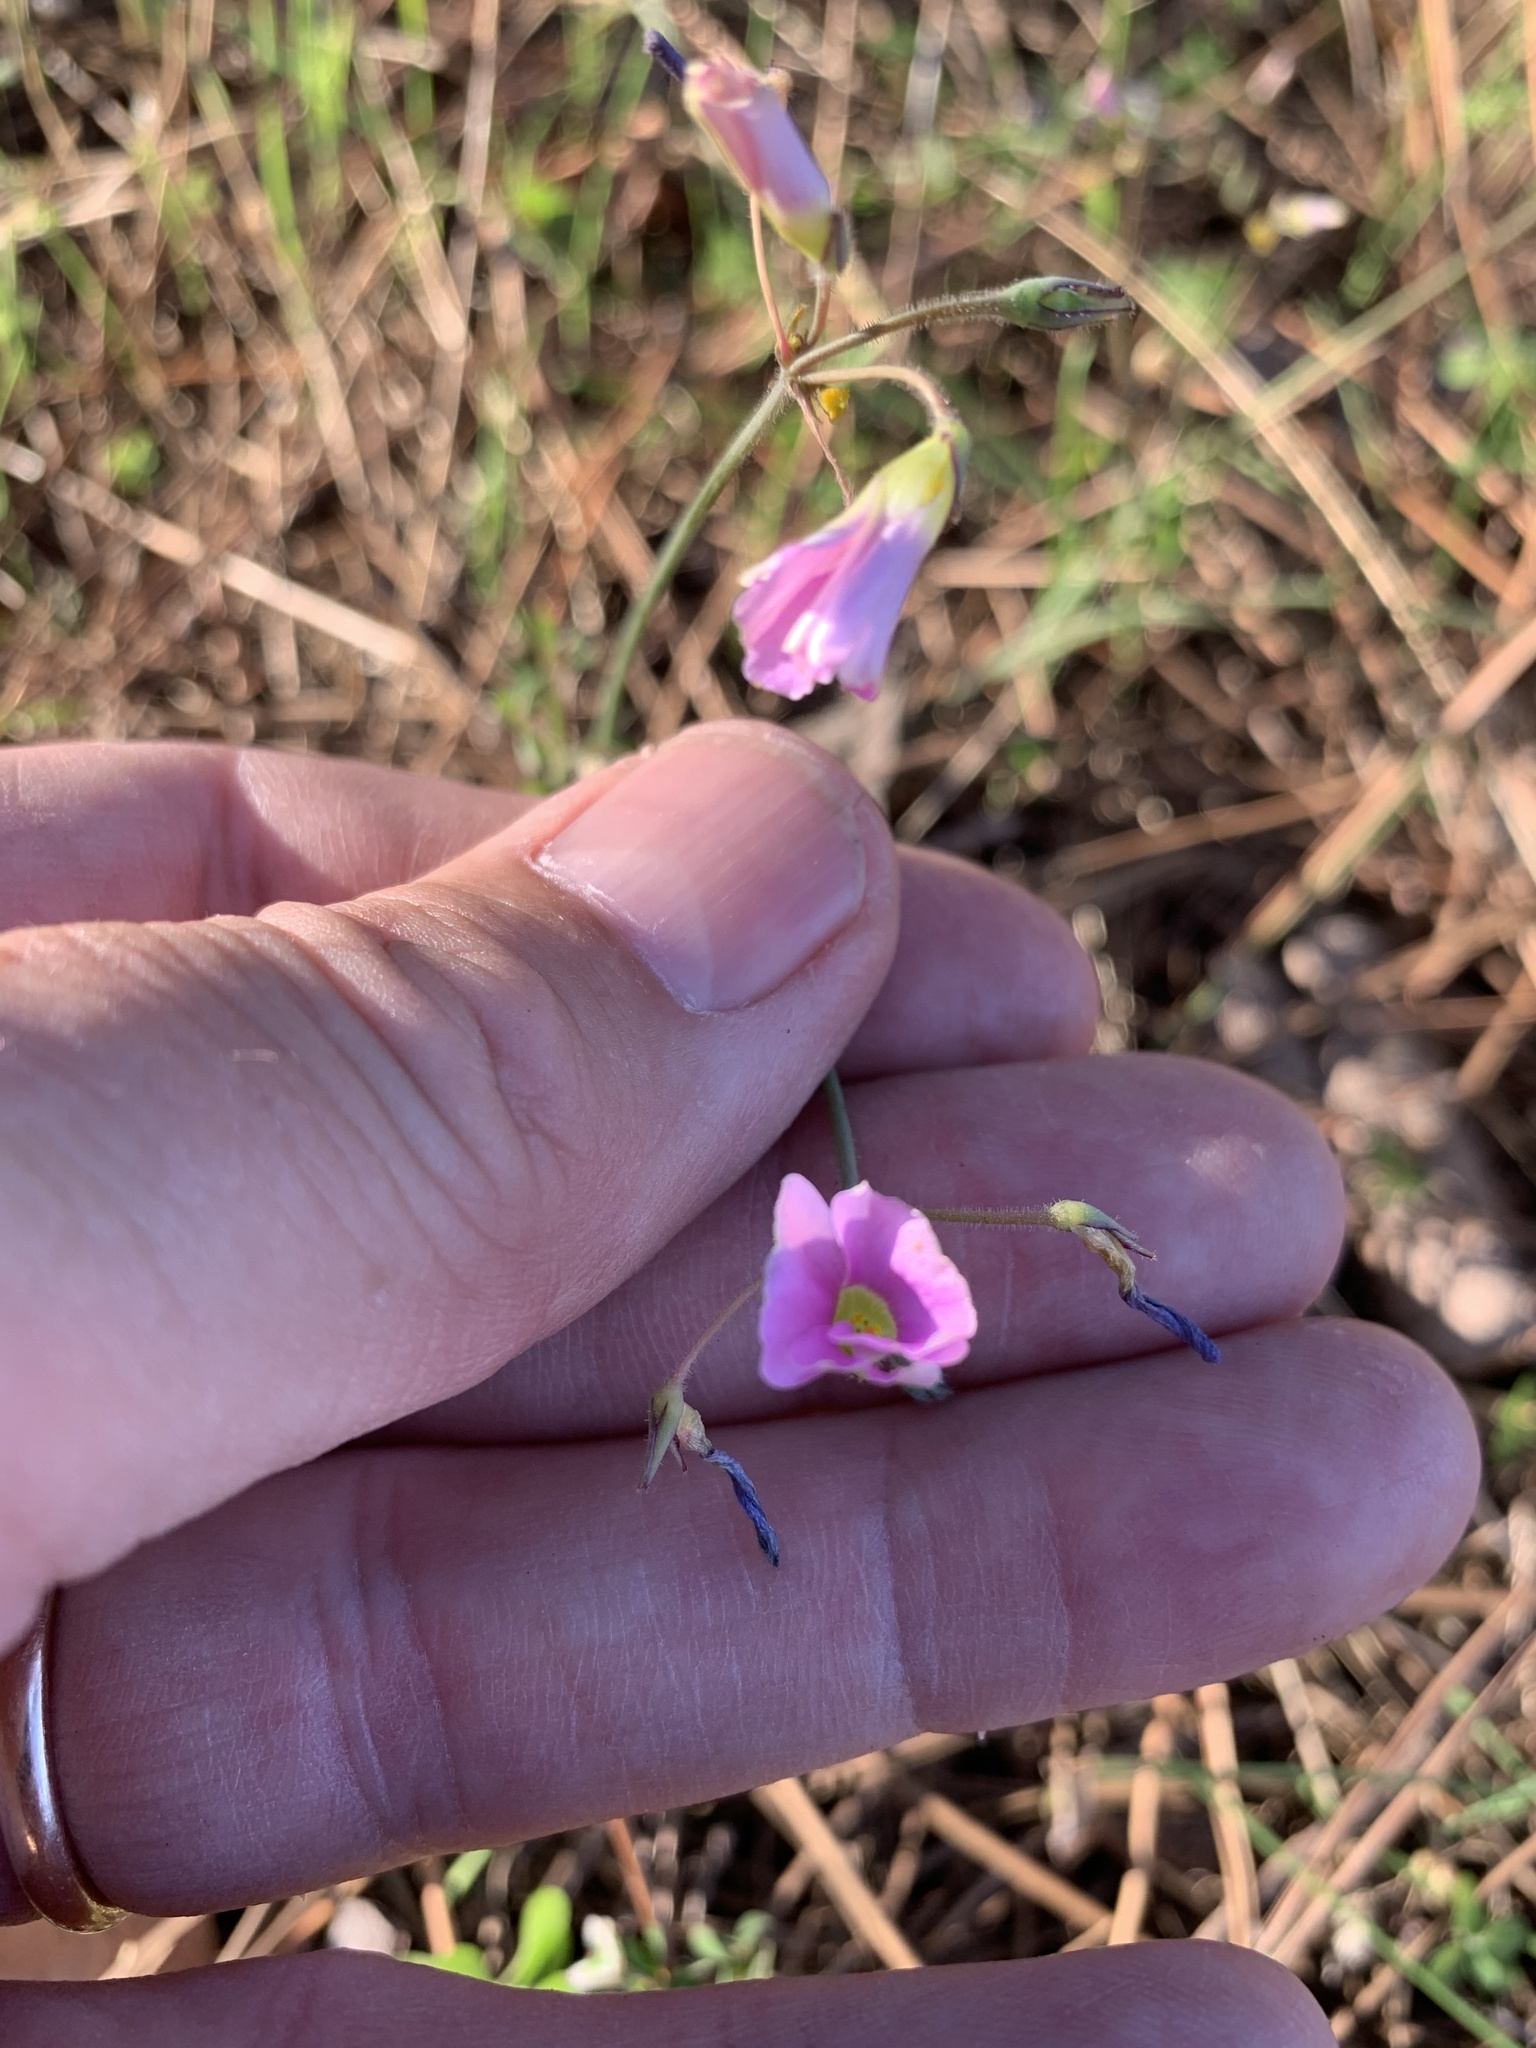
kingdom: Plantae
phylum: Tracheophyta
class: Magnoliopsida
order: Oxalidales
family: Oxalidaceae
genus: Oxalis
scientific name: Oxalis livida
